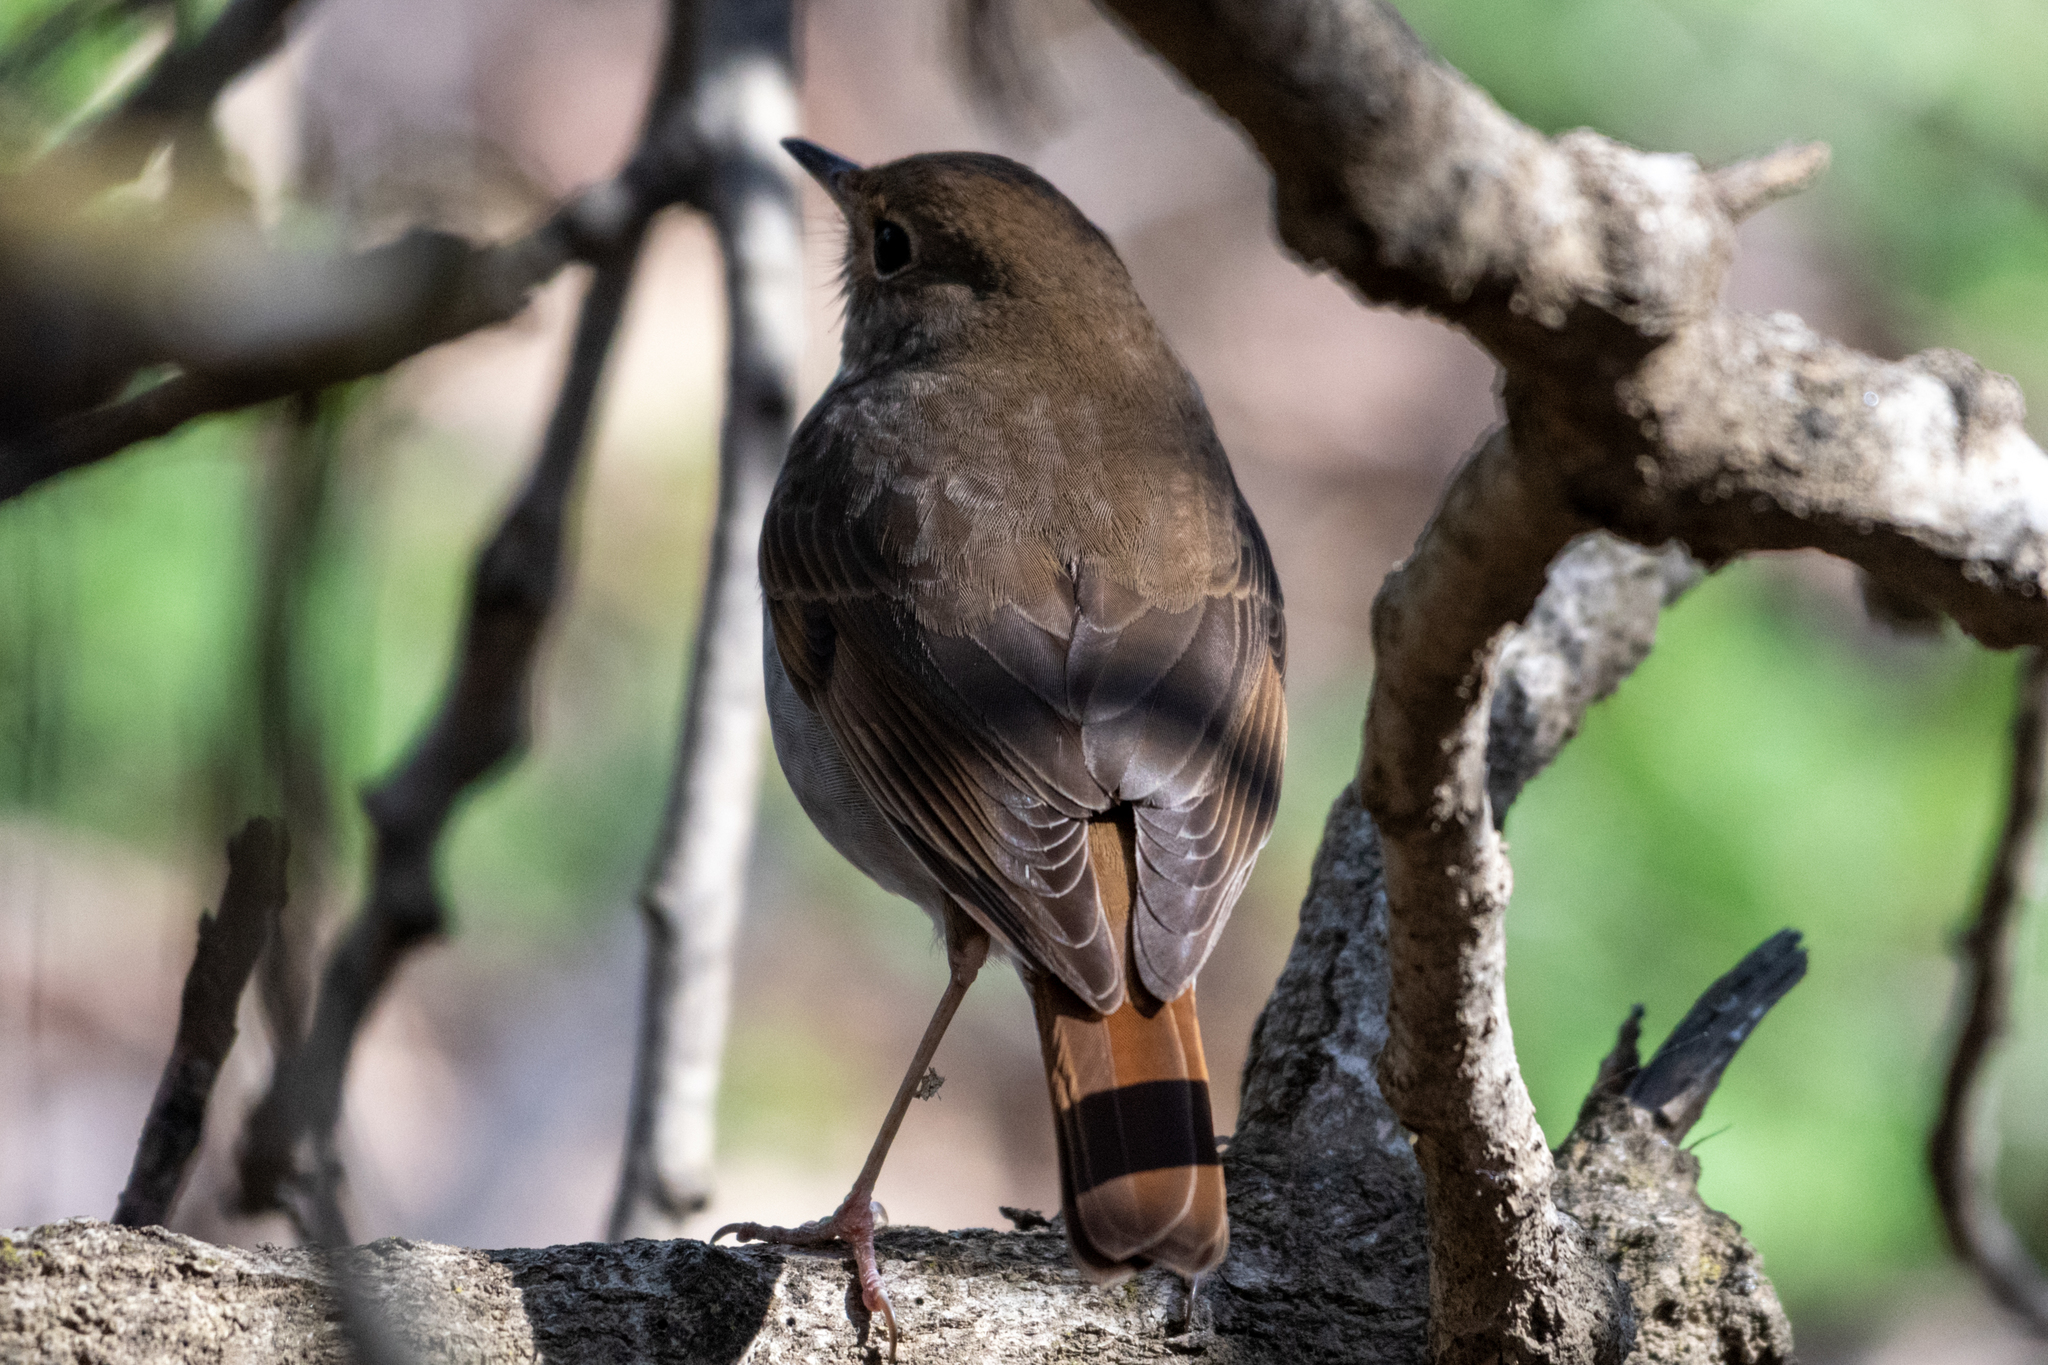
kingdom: Animalia
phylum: Chordata
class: Aves
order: Passeriformes
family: Turdidae
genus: Catharus
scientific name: Catharus guttatus
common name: Hermit thrush
